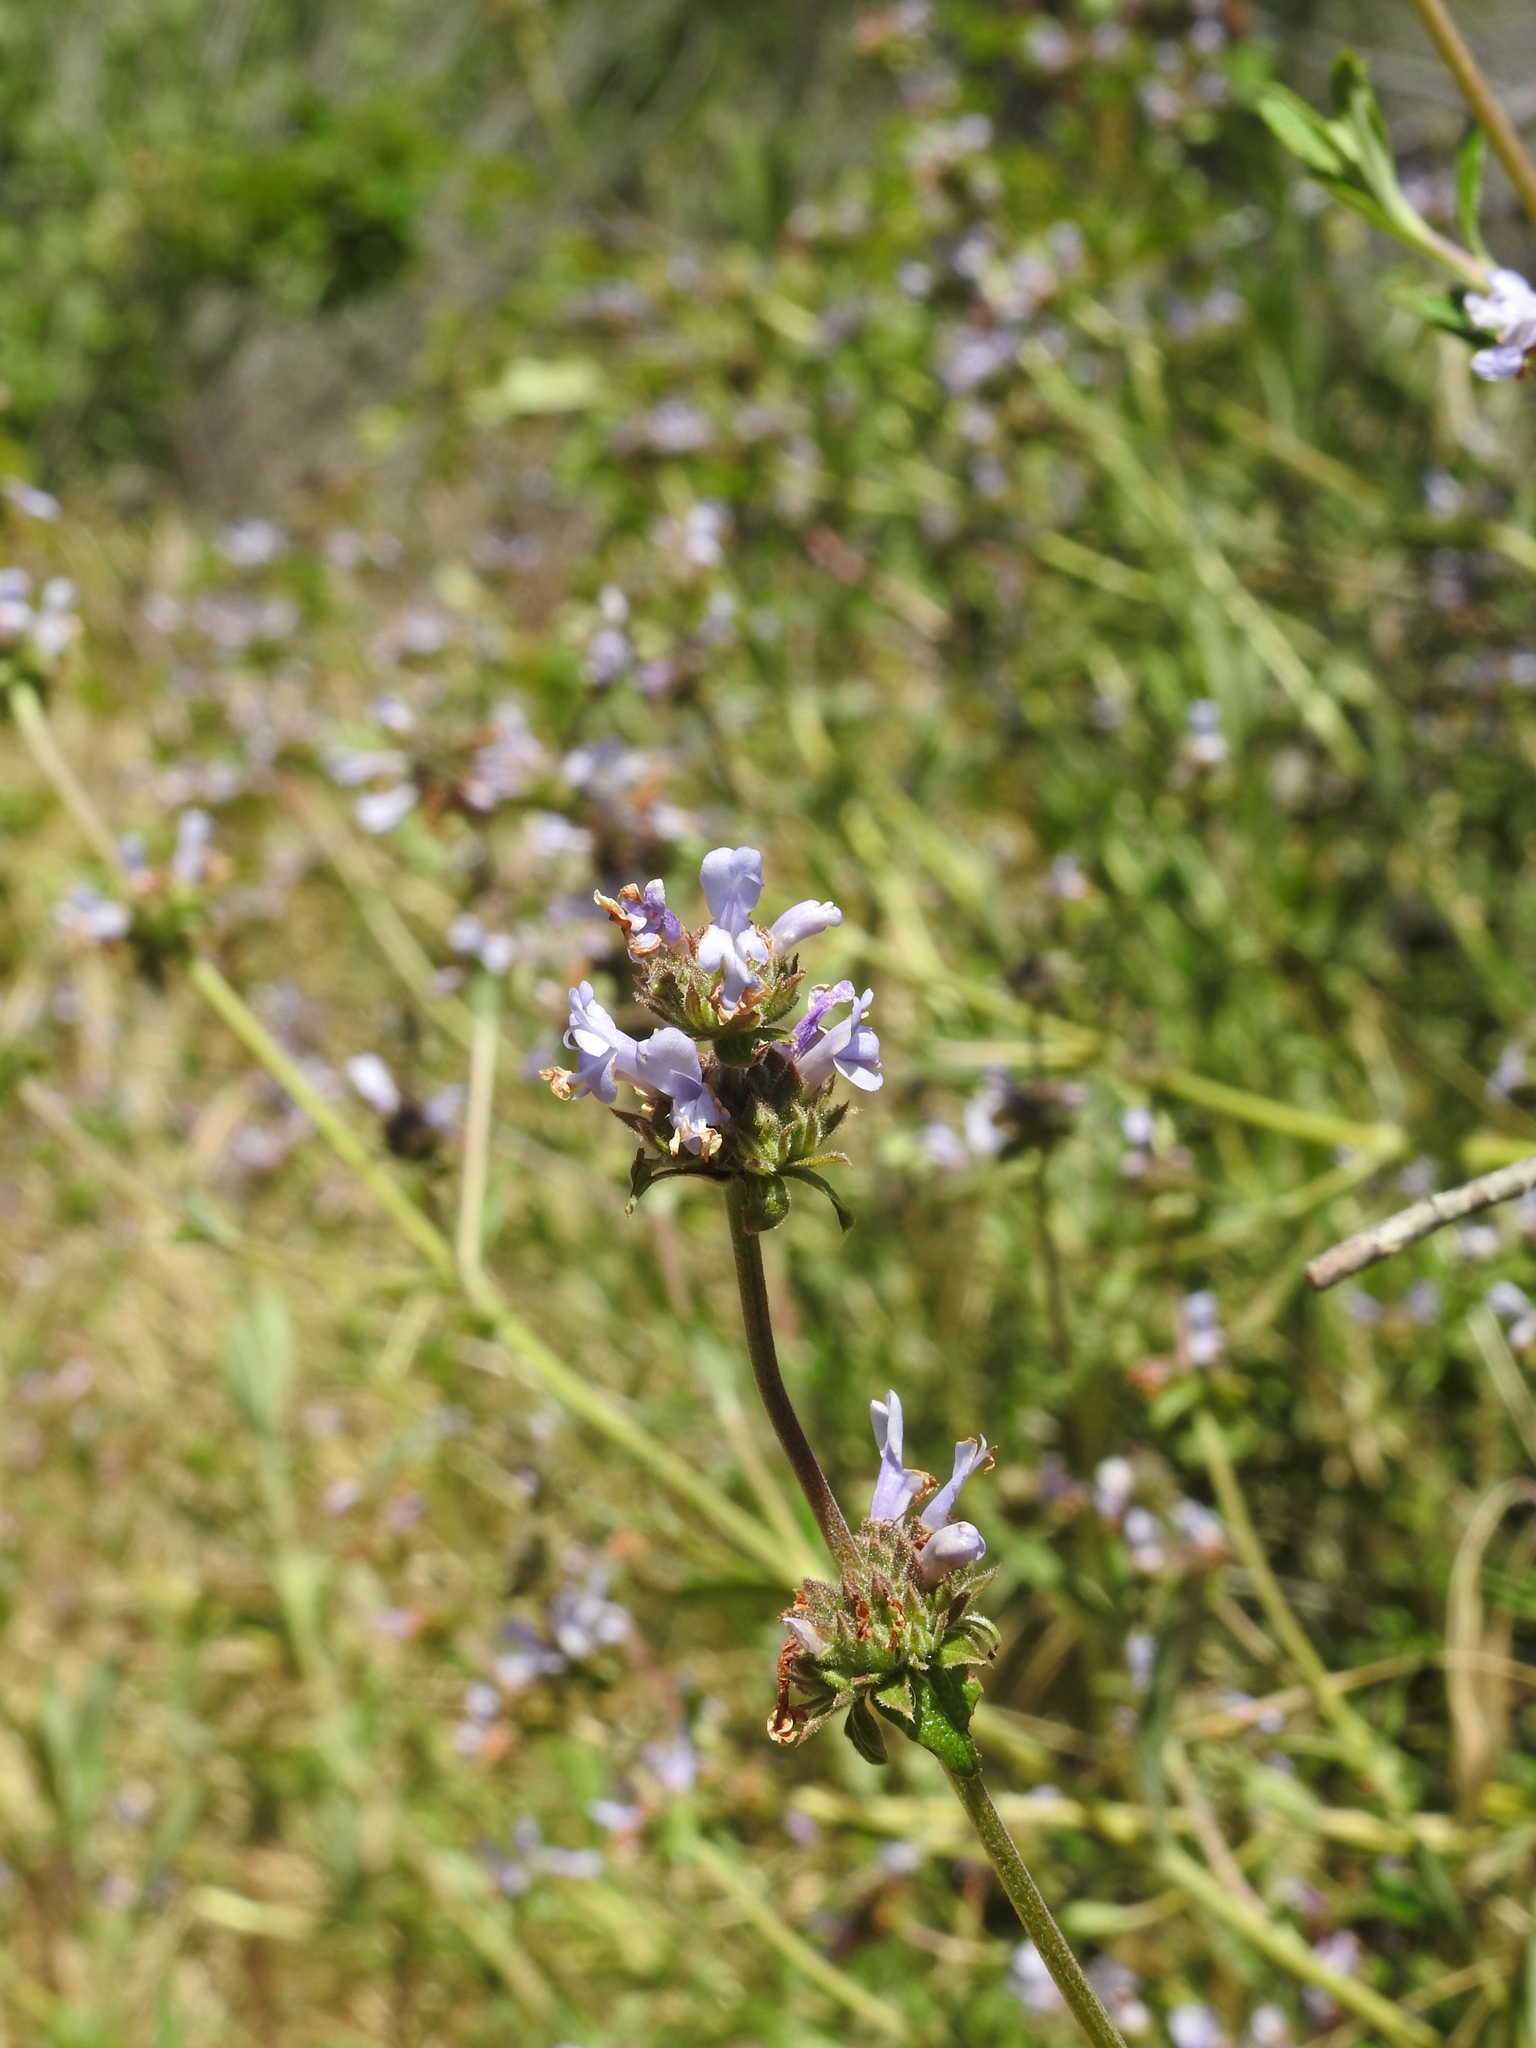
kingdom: Plantae
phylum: Tracheophyta
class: Magnoliopsida
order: Lamiales
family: Lamiaceae
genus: Salvia
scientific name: Salvia mellifera
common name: Black sage
